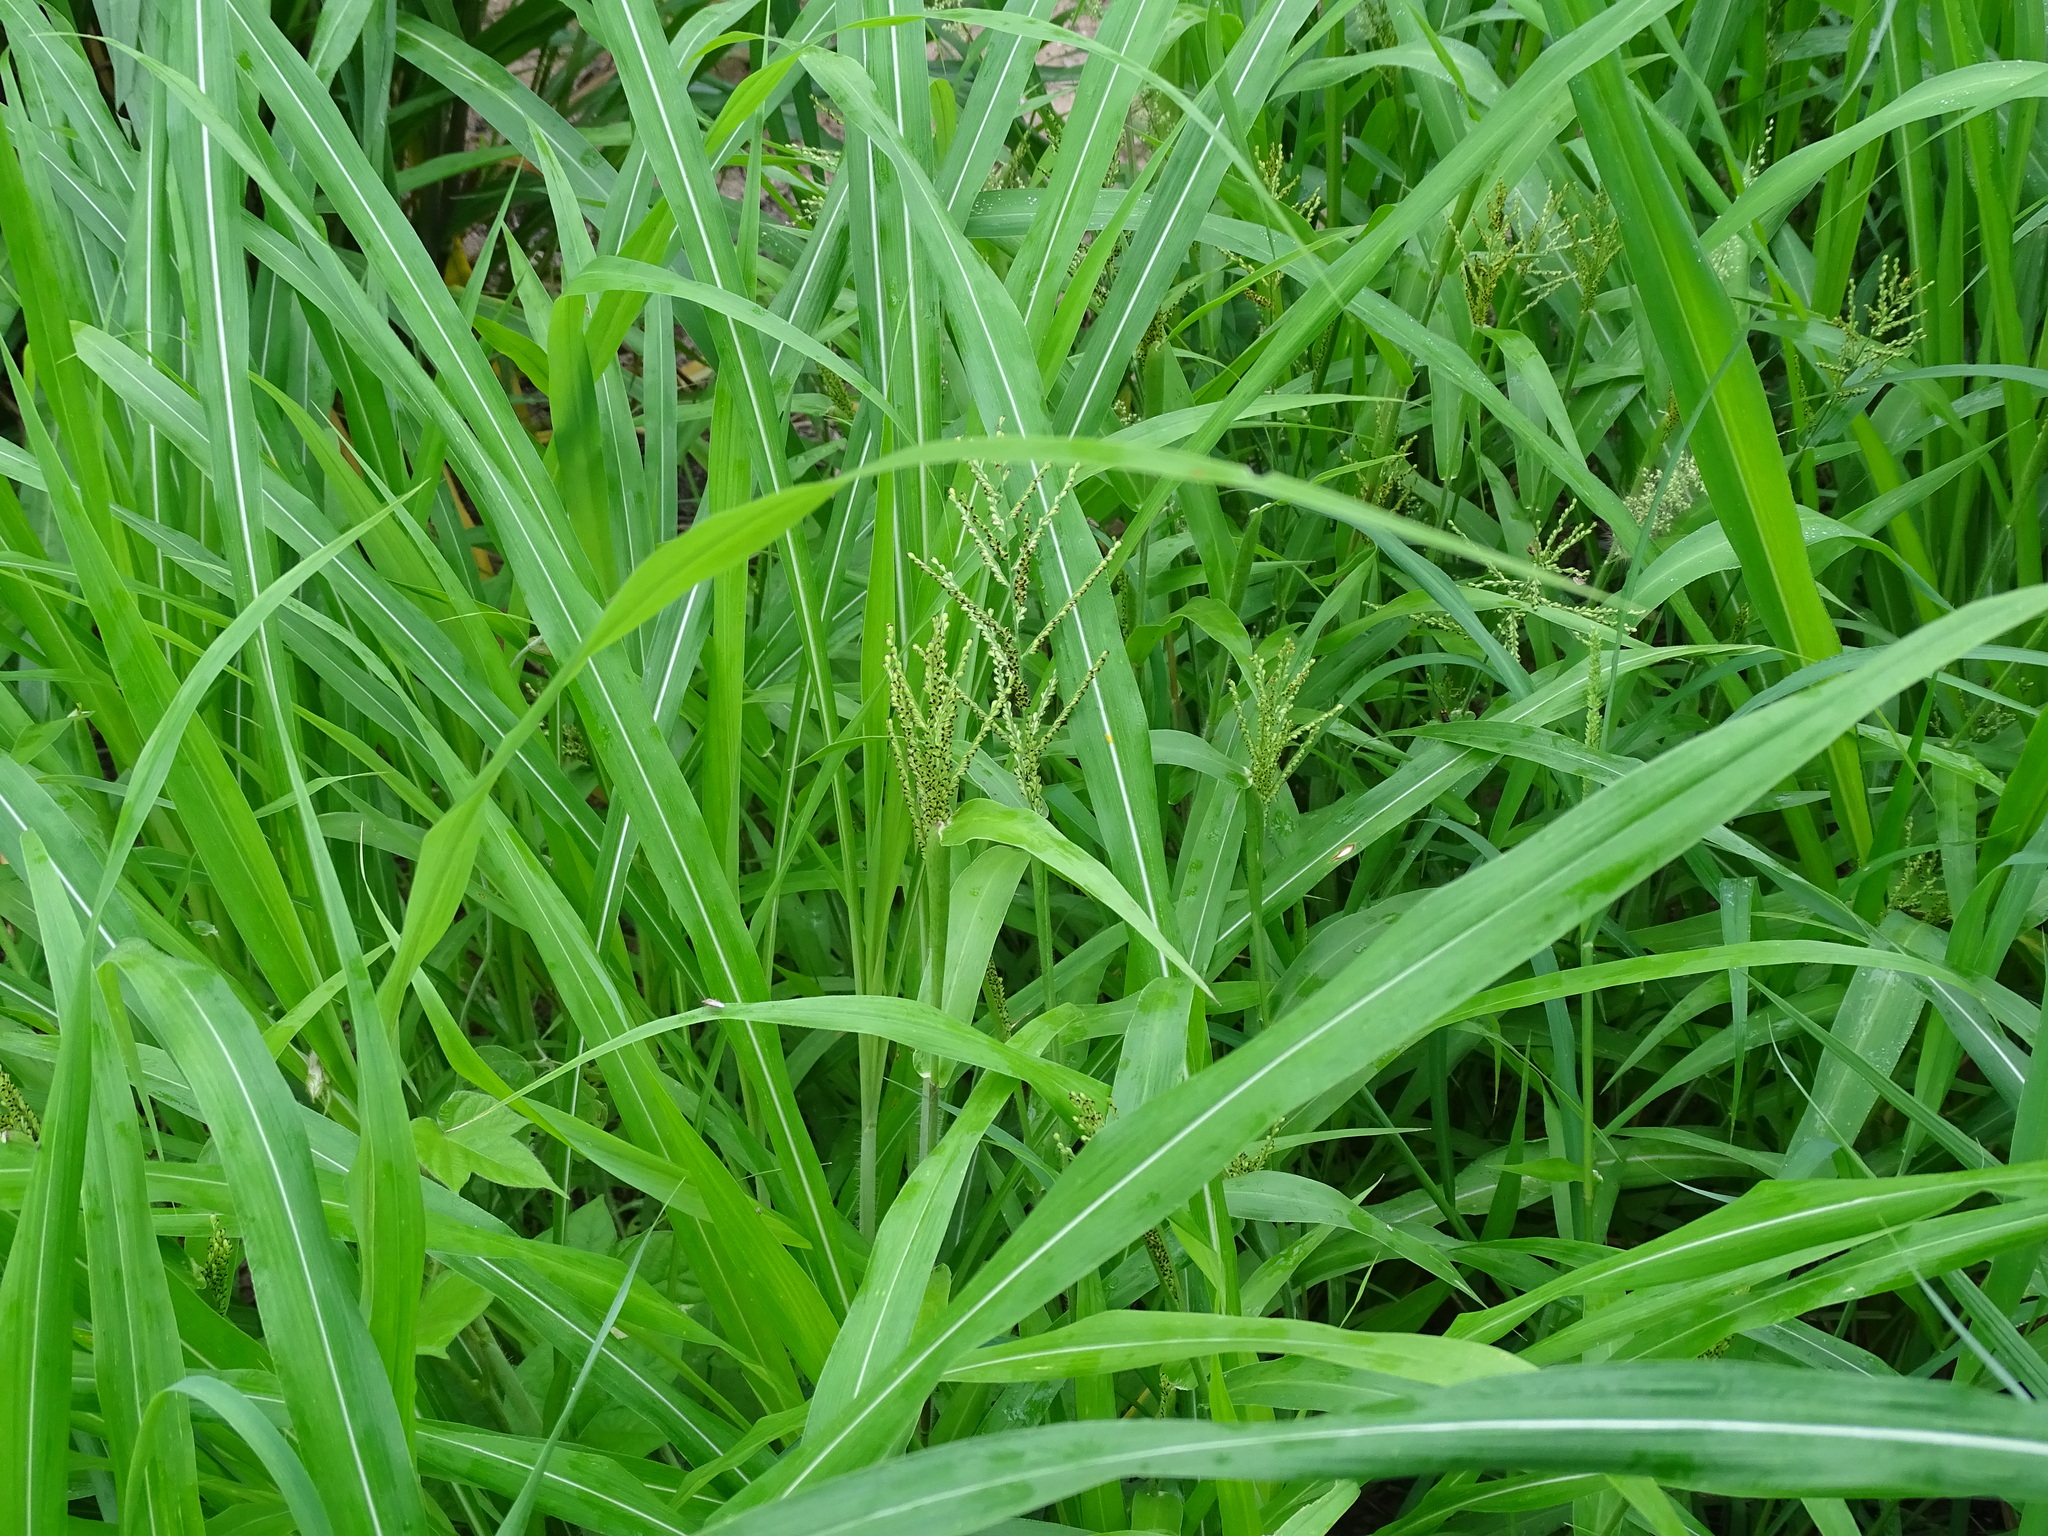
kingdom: Plantae
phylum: Tracheophyta
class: Liliopsida
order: Poales
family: Poaceae
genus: Urochloa
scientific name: Urochloa fusca
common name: Browntop signal grass
